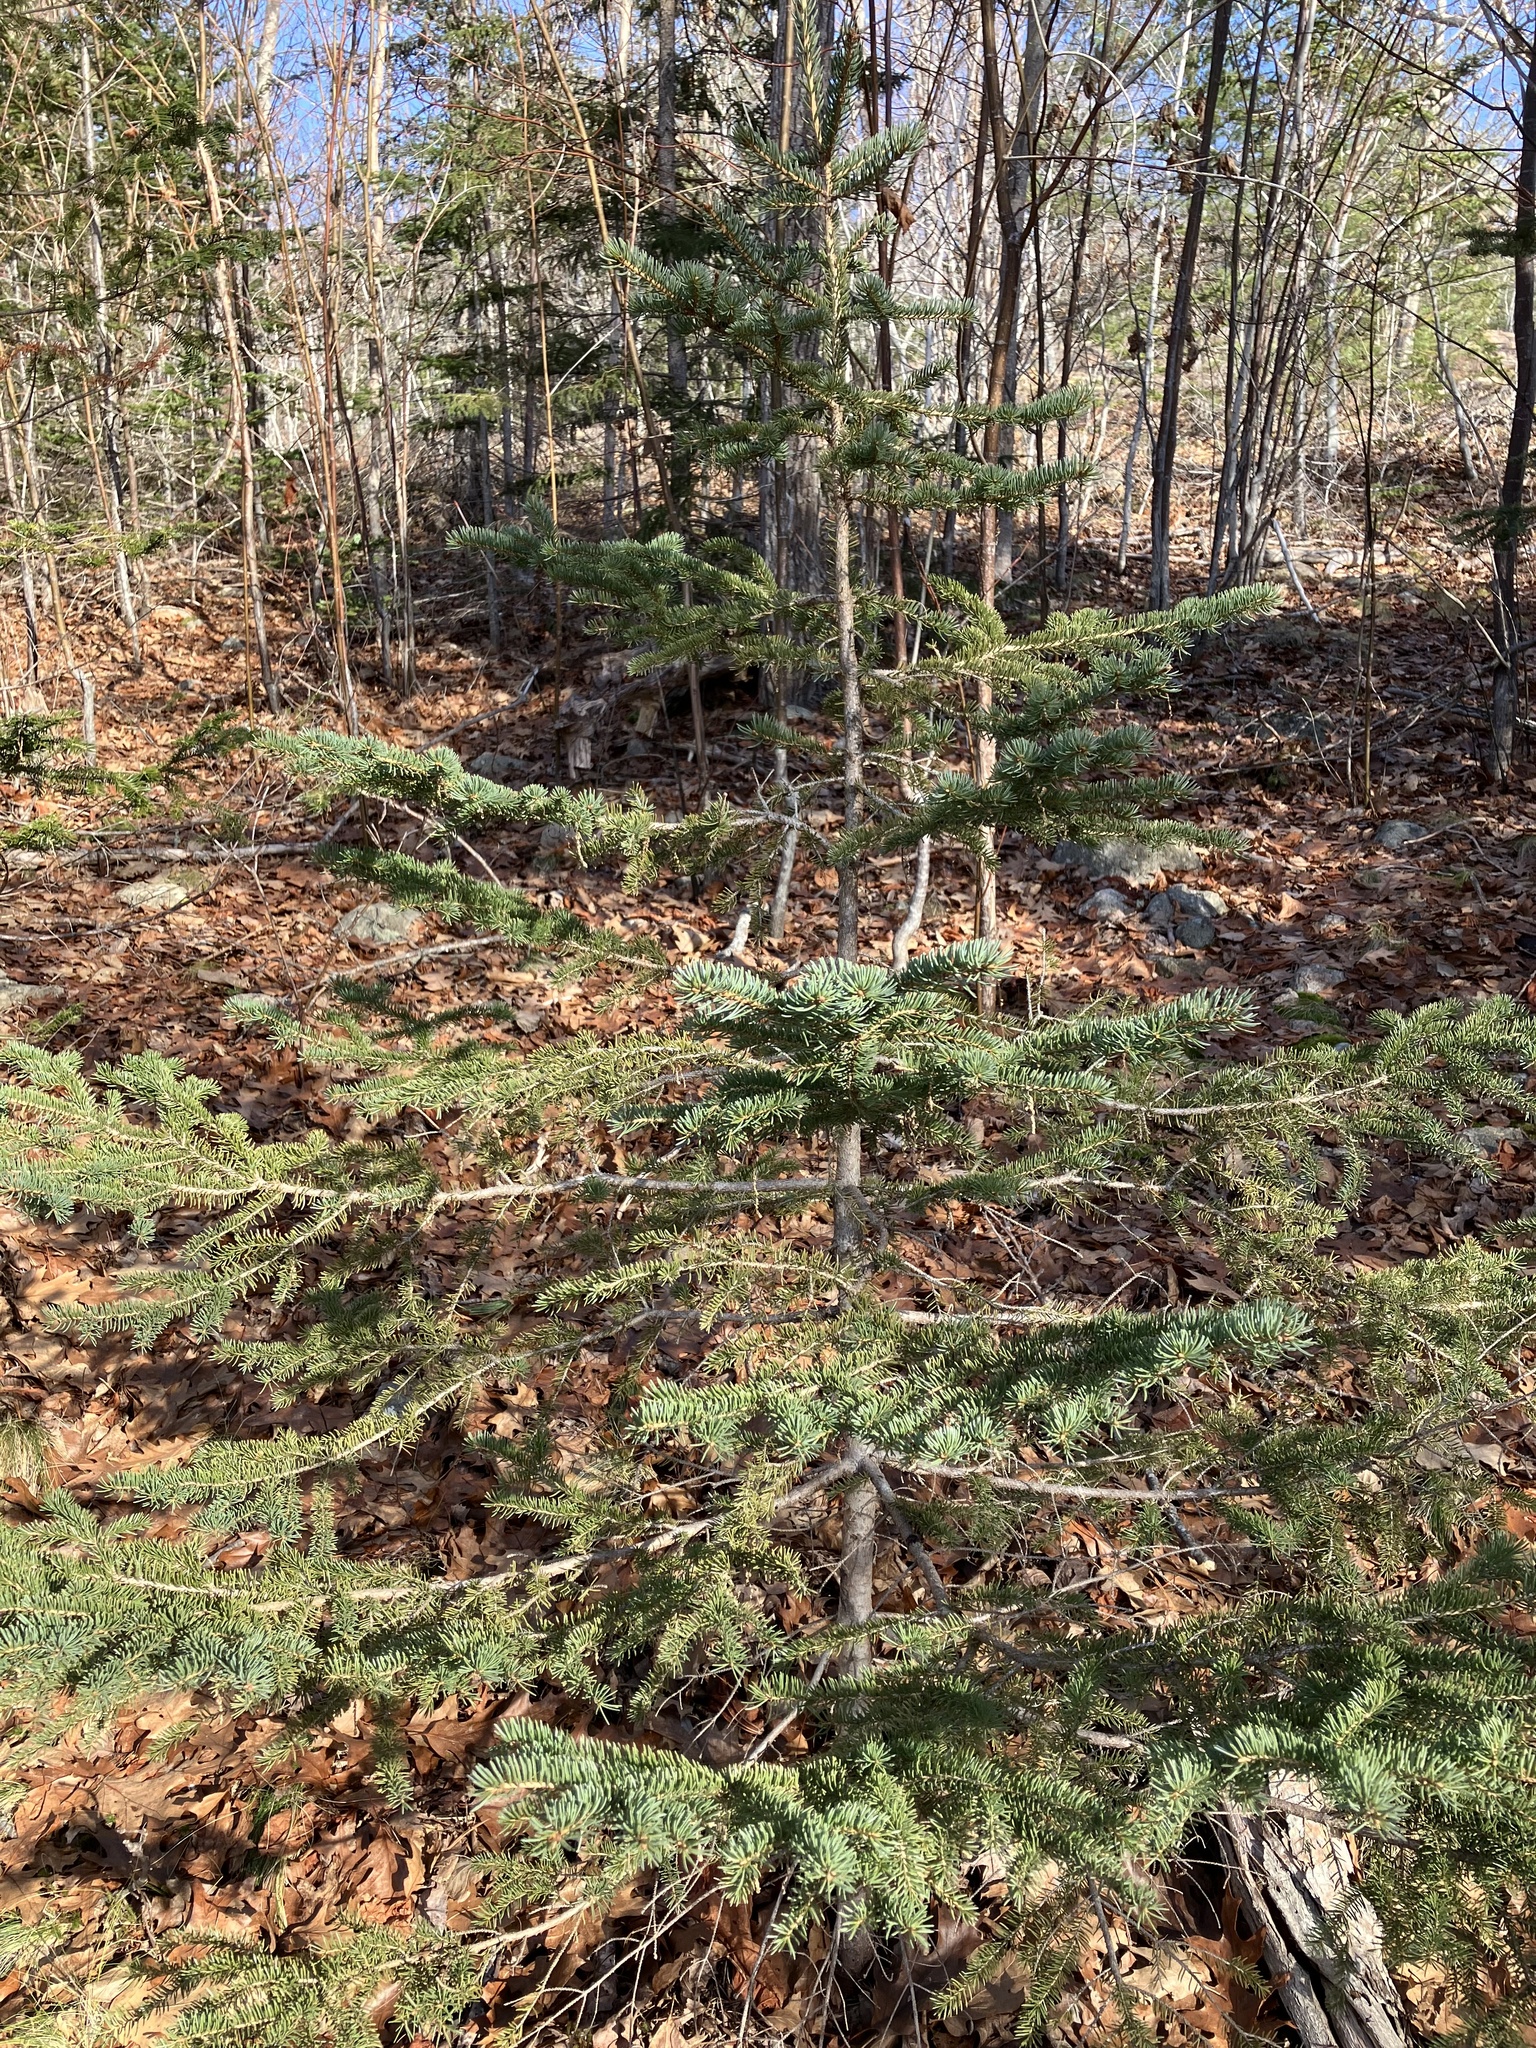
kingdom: Plantae
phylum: Tracheophyta
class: Pinopsida
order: Pinales
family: Pinaceae
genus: Picea
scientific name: Picea glauca
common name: White spruce
